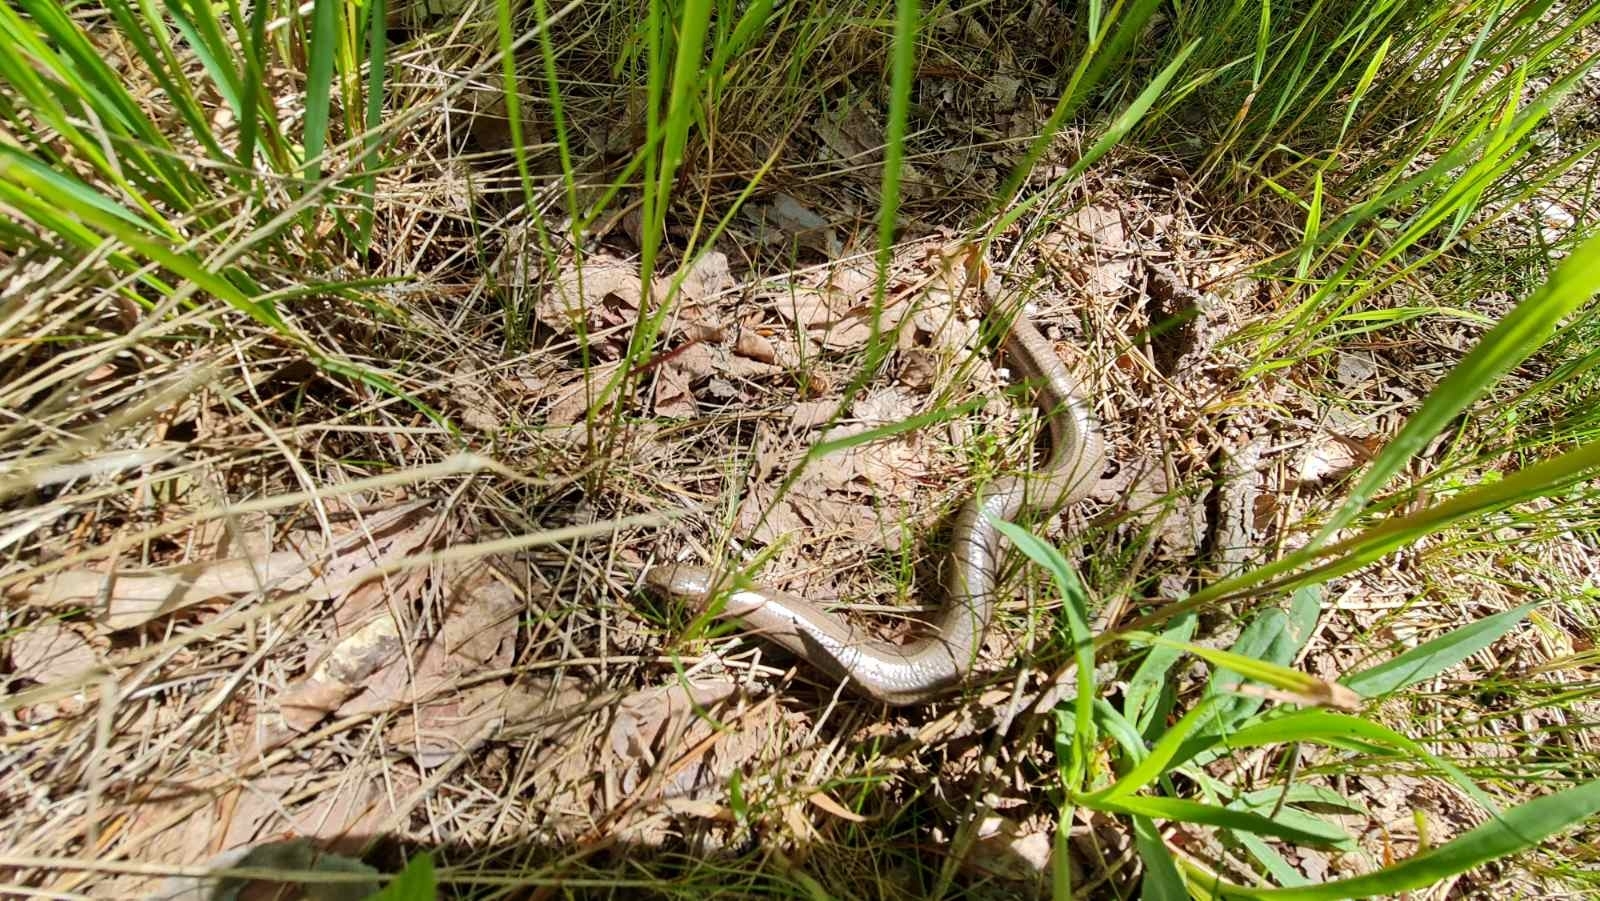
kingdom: Animalia
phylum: Chordata
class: Squamata
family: Anguidae
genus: Anguis
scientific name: Anguis colchica
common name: Slow worm
